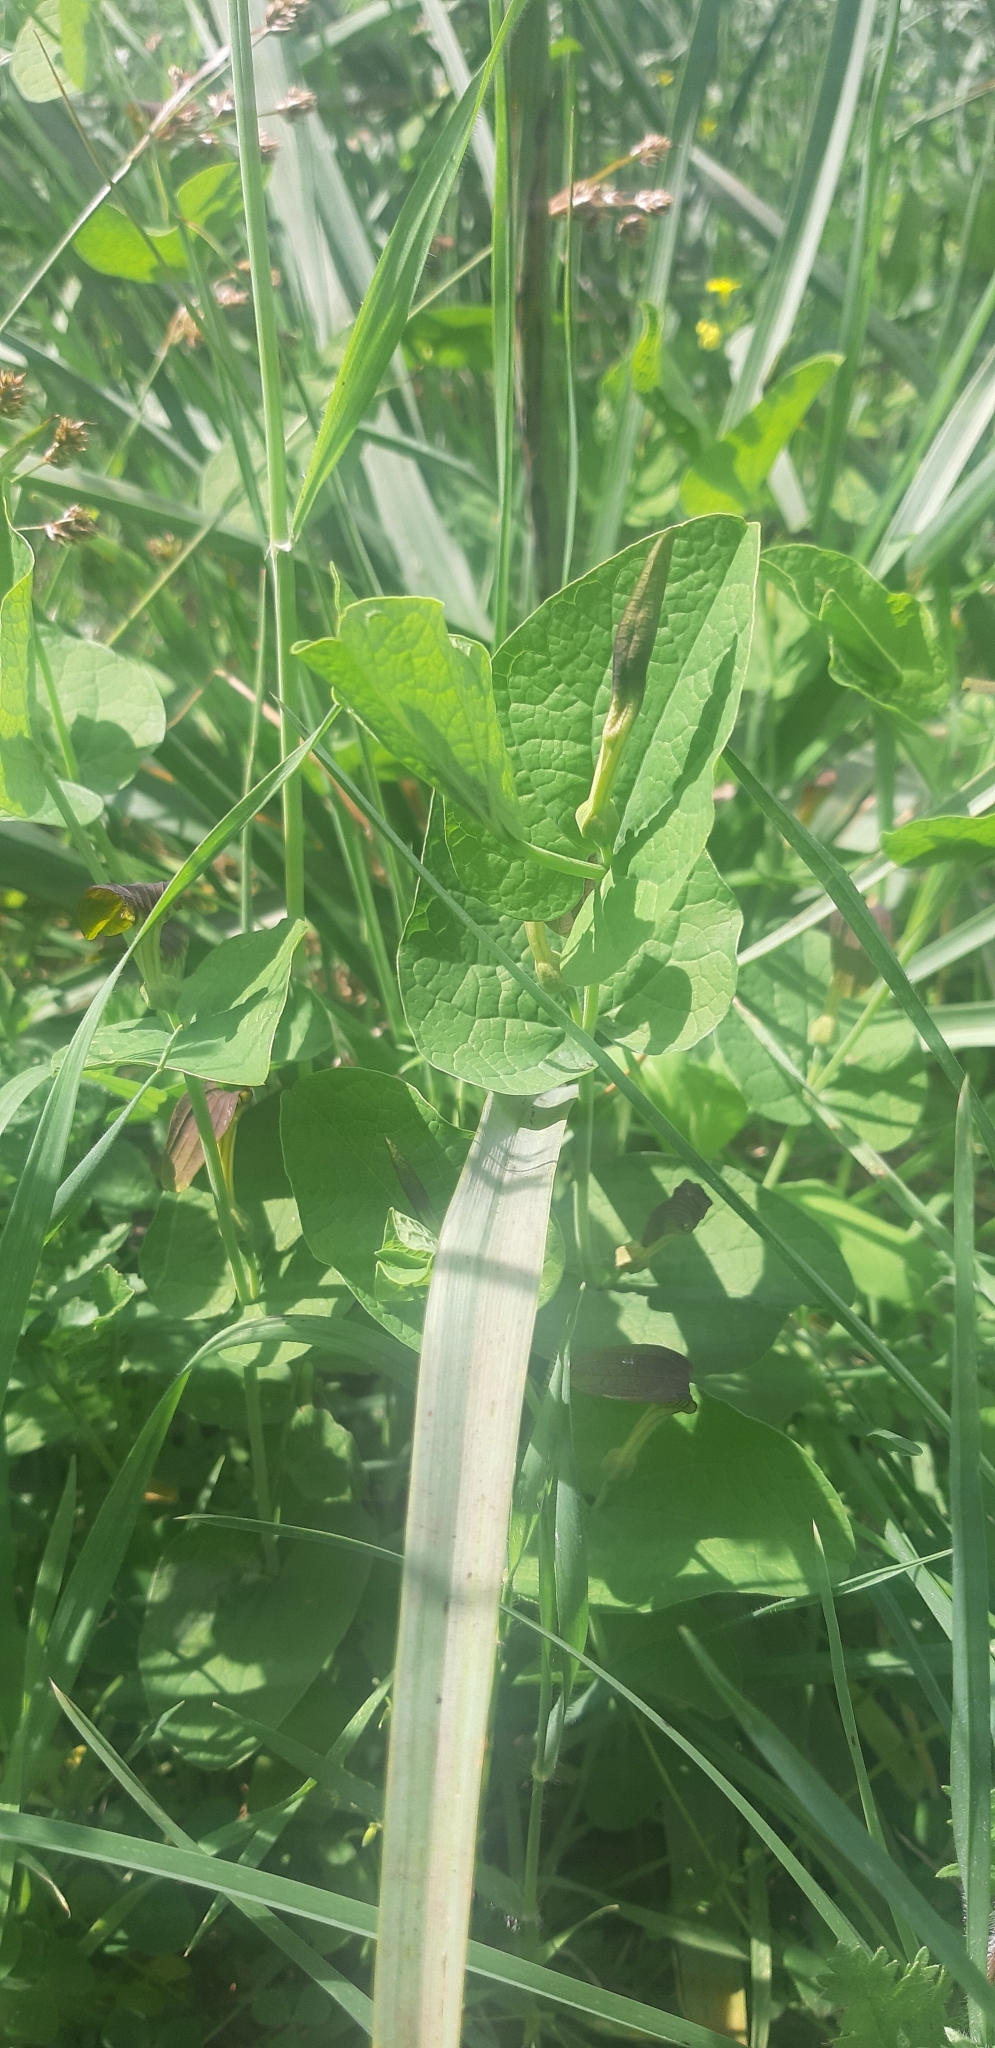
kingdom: Plantae
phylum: Tracheophyta
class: Magnoliopsida
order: Piperales
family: Aristolochiaceae
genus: Aristolochia
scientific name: Aristolochia rotunda
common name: Smearwort
